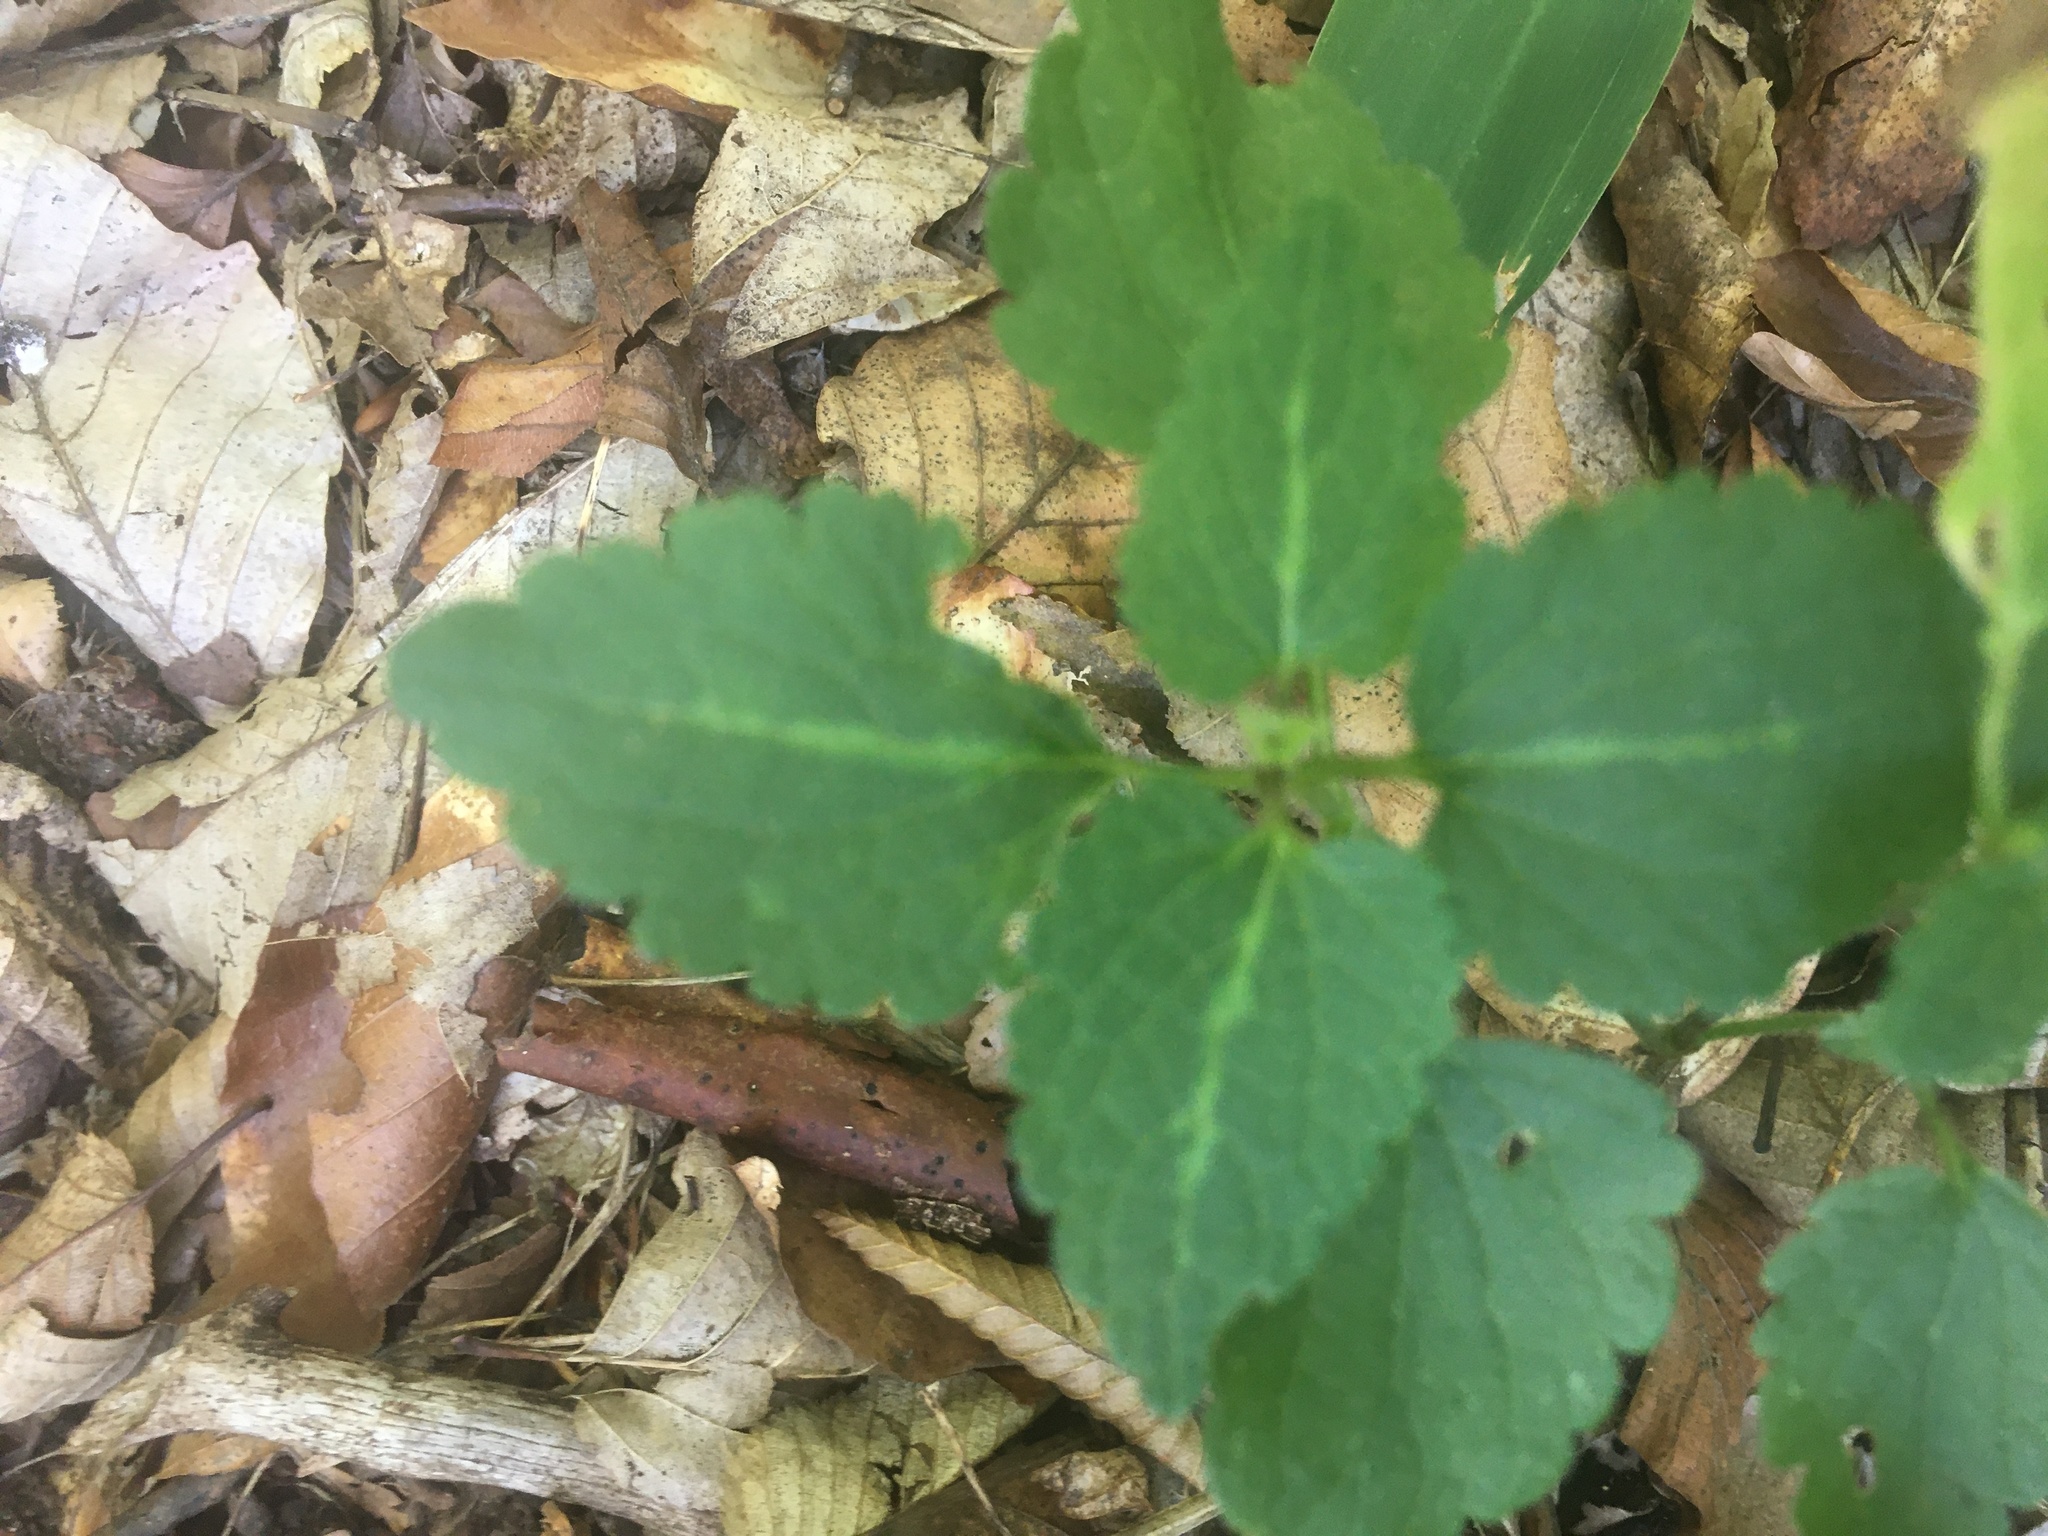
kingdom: Plantae
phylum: Tracheophyta
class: Magnoliopsida
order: Lamiales
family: Lamiaceae
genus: Lamium
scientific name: Lamium maculatum
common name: Spotted dead-nettle
